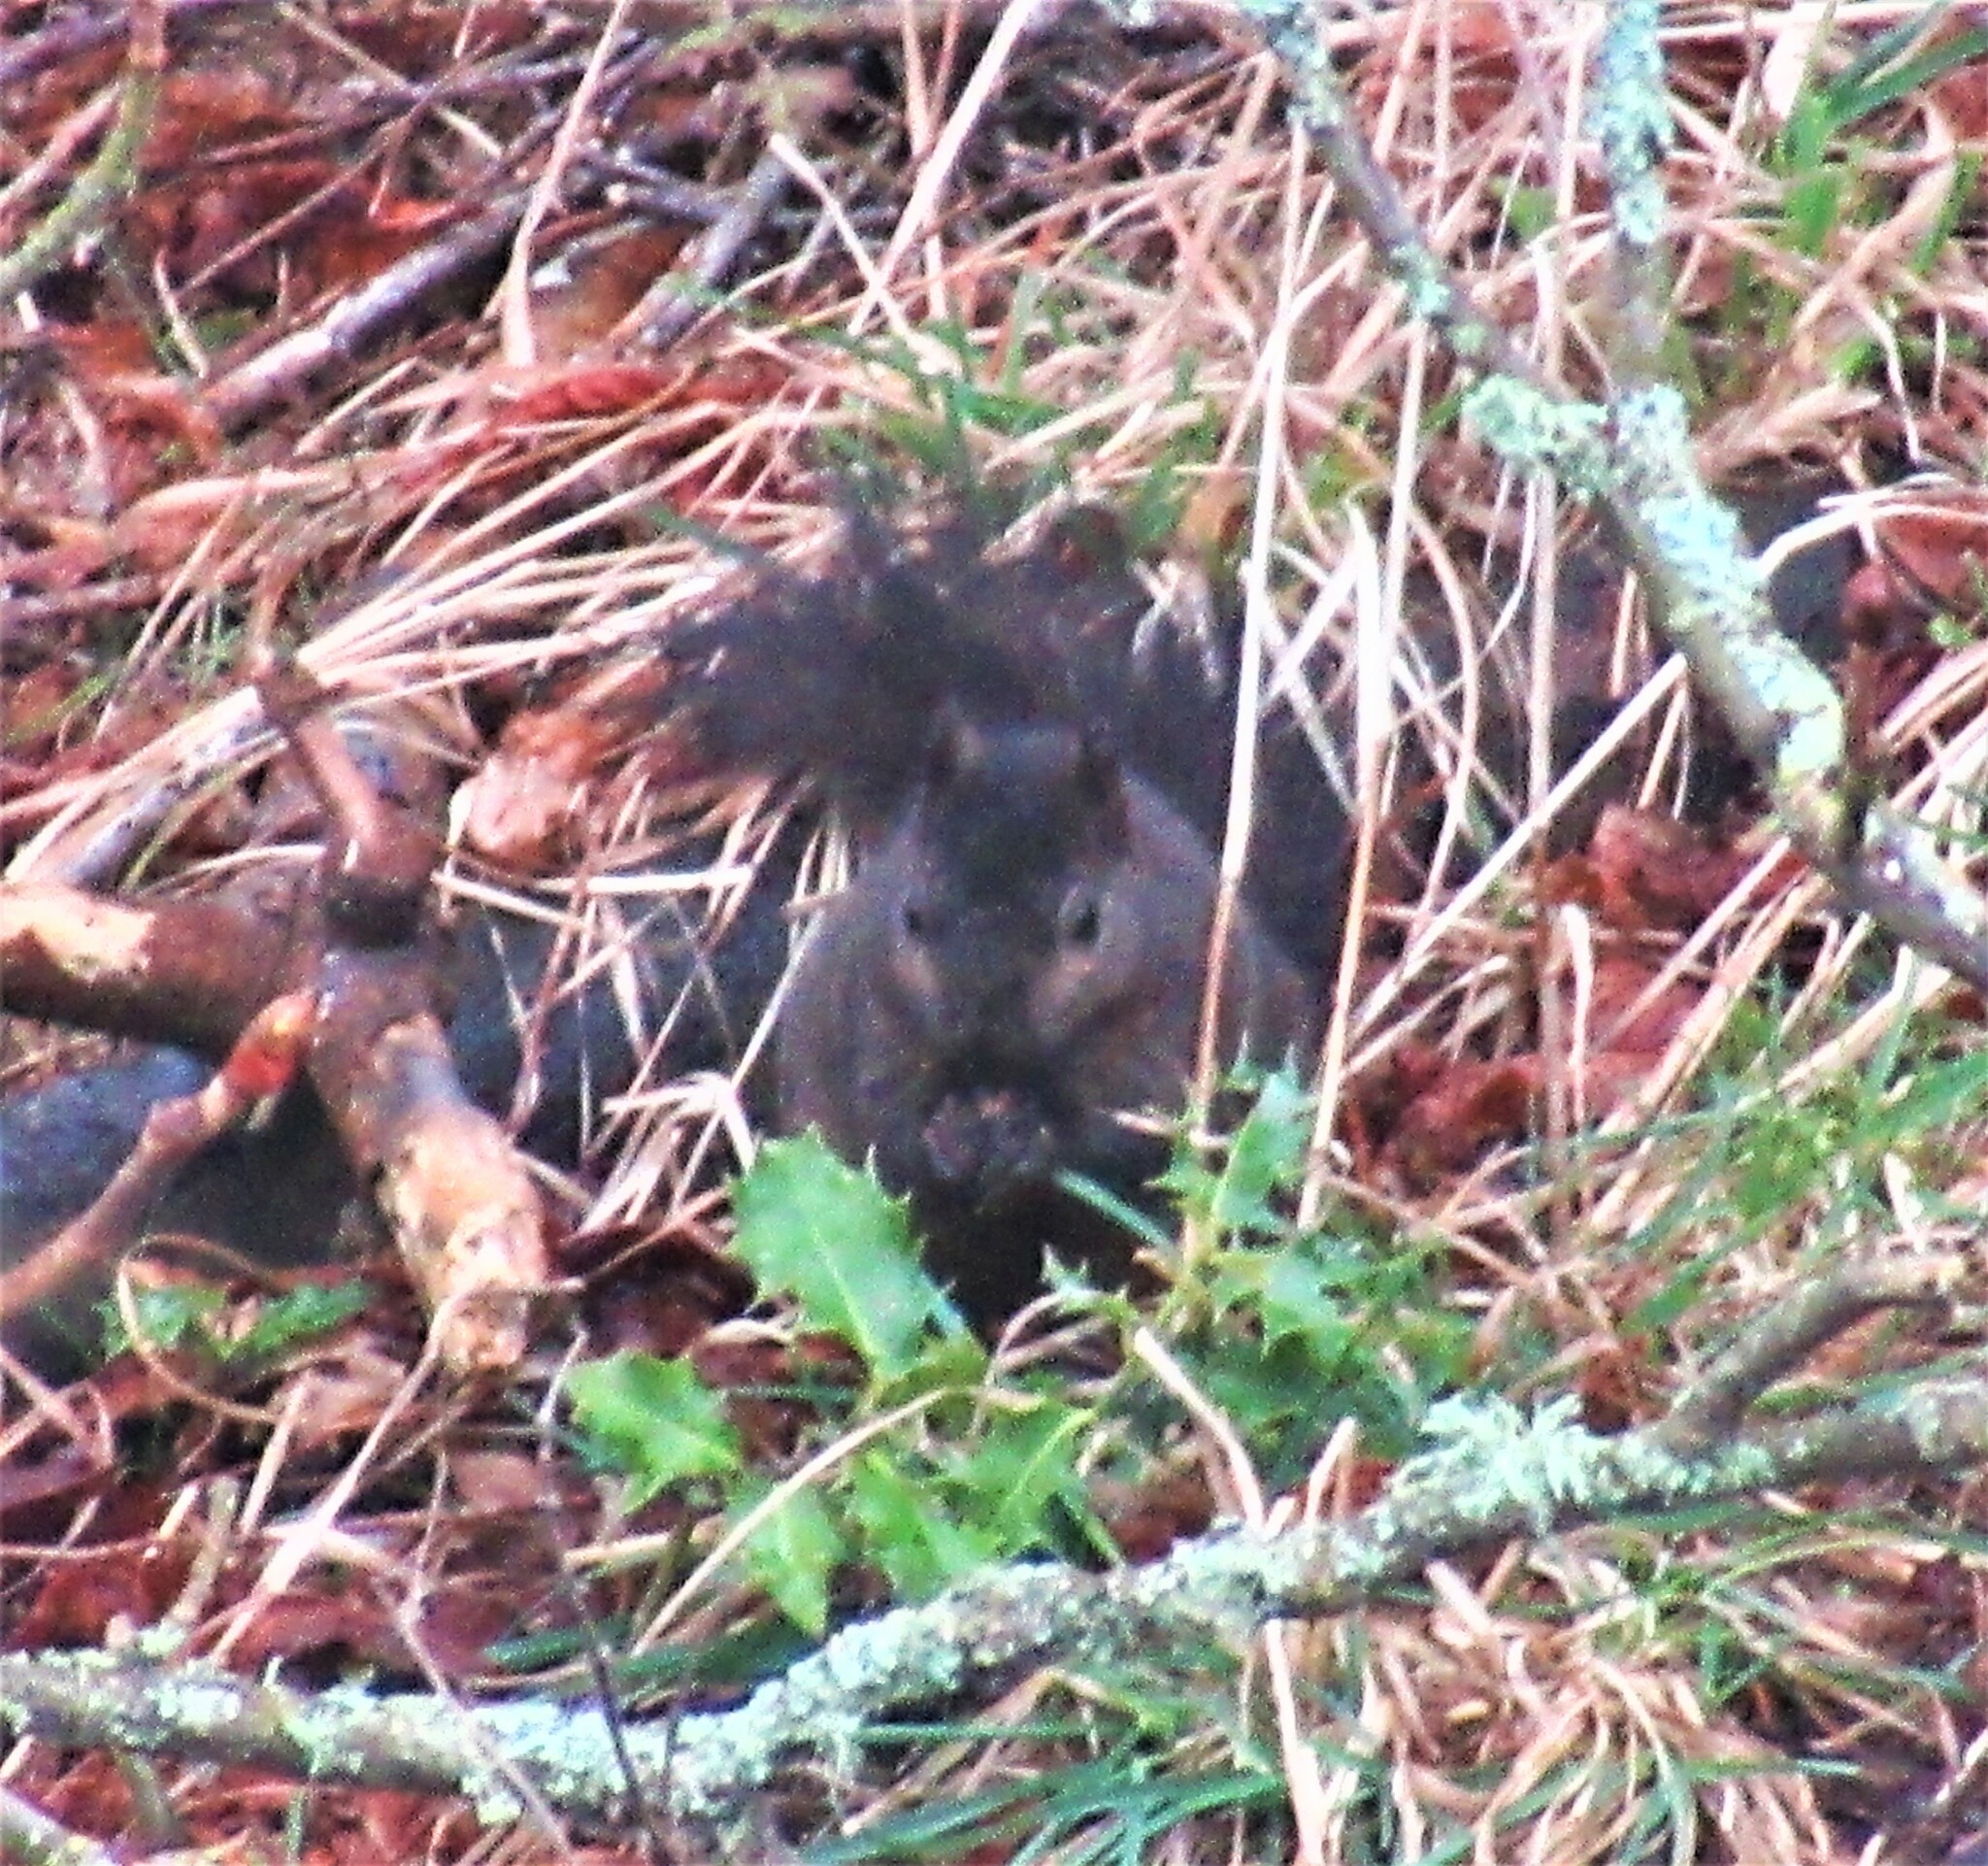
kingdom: Animalia
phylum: Chordata
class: Mammalia
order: Rodentia
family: Sciuridae
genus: Sciurus
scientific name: Sciurus carolinensis
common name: Eastern gray squirrel
